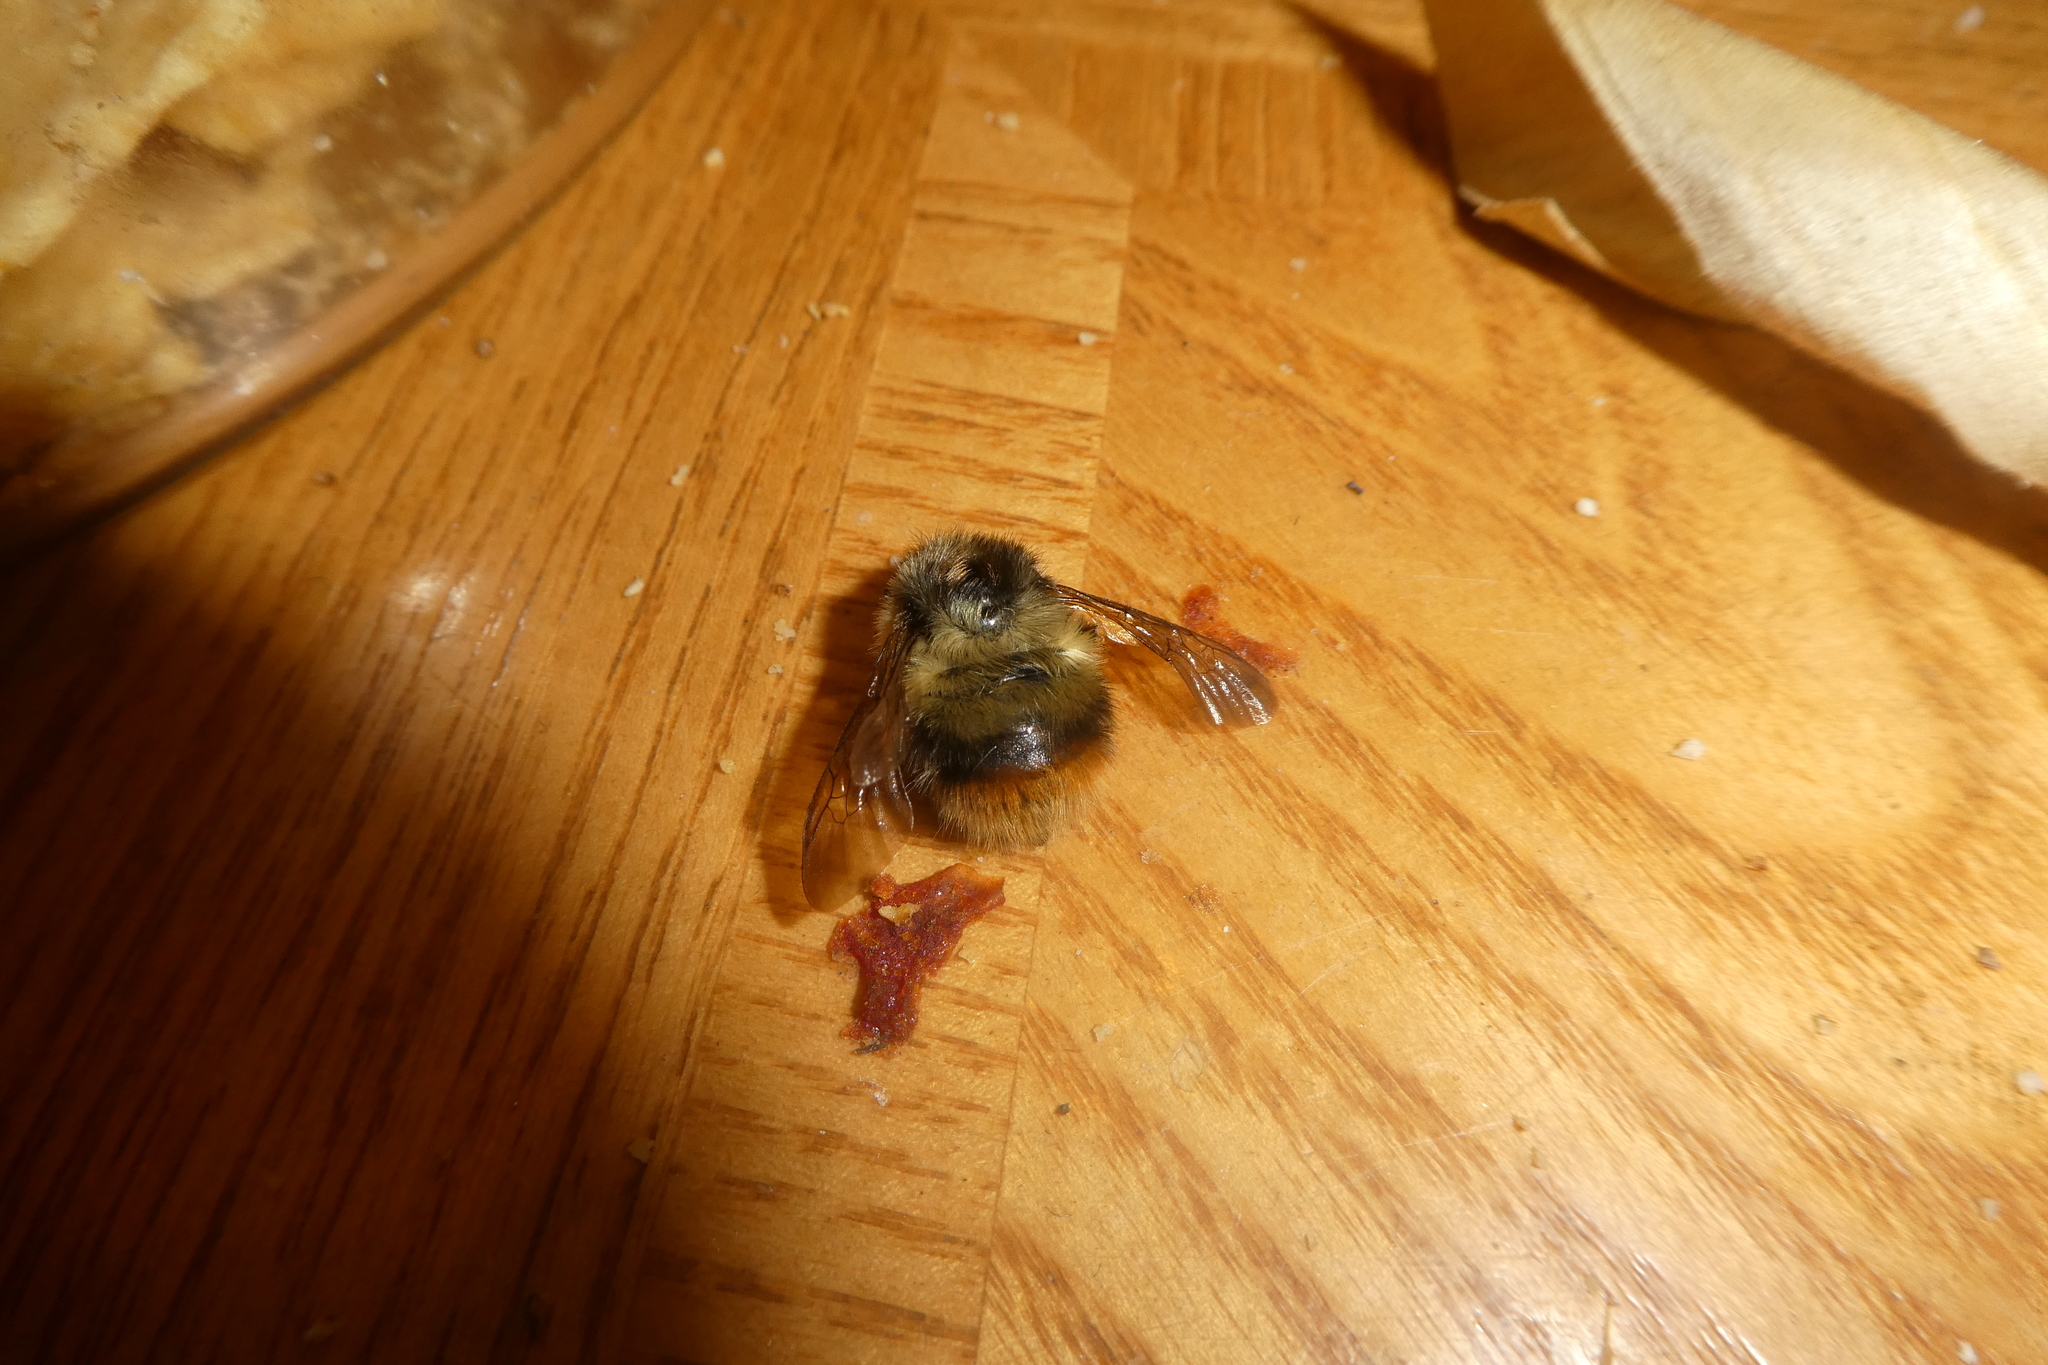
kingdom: Animalia
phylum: Arthropoda
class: Insecta
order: Hymenoptera
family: Apidae
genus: Bombus
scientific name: Bombus mixtus
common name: Fuzzy-horned bumble bee
